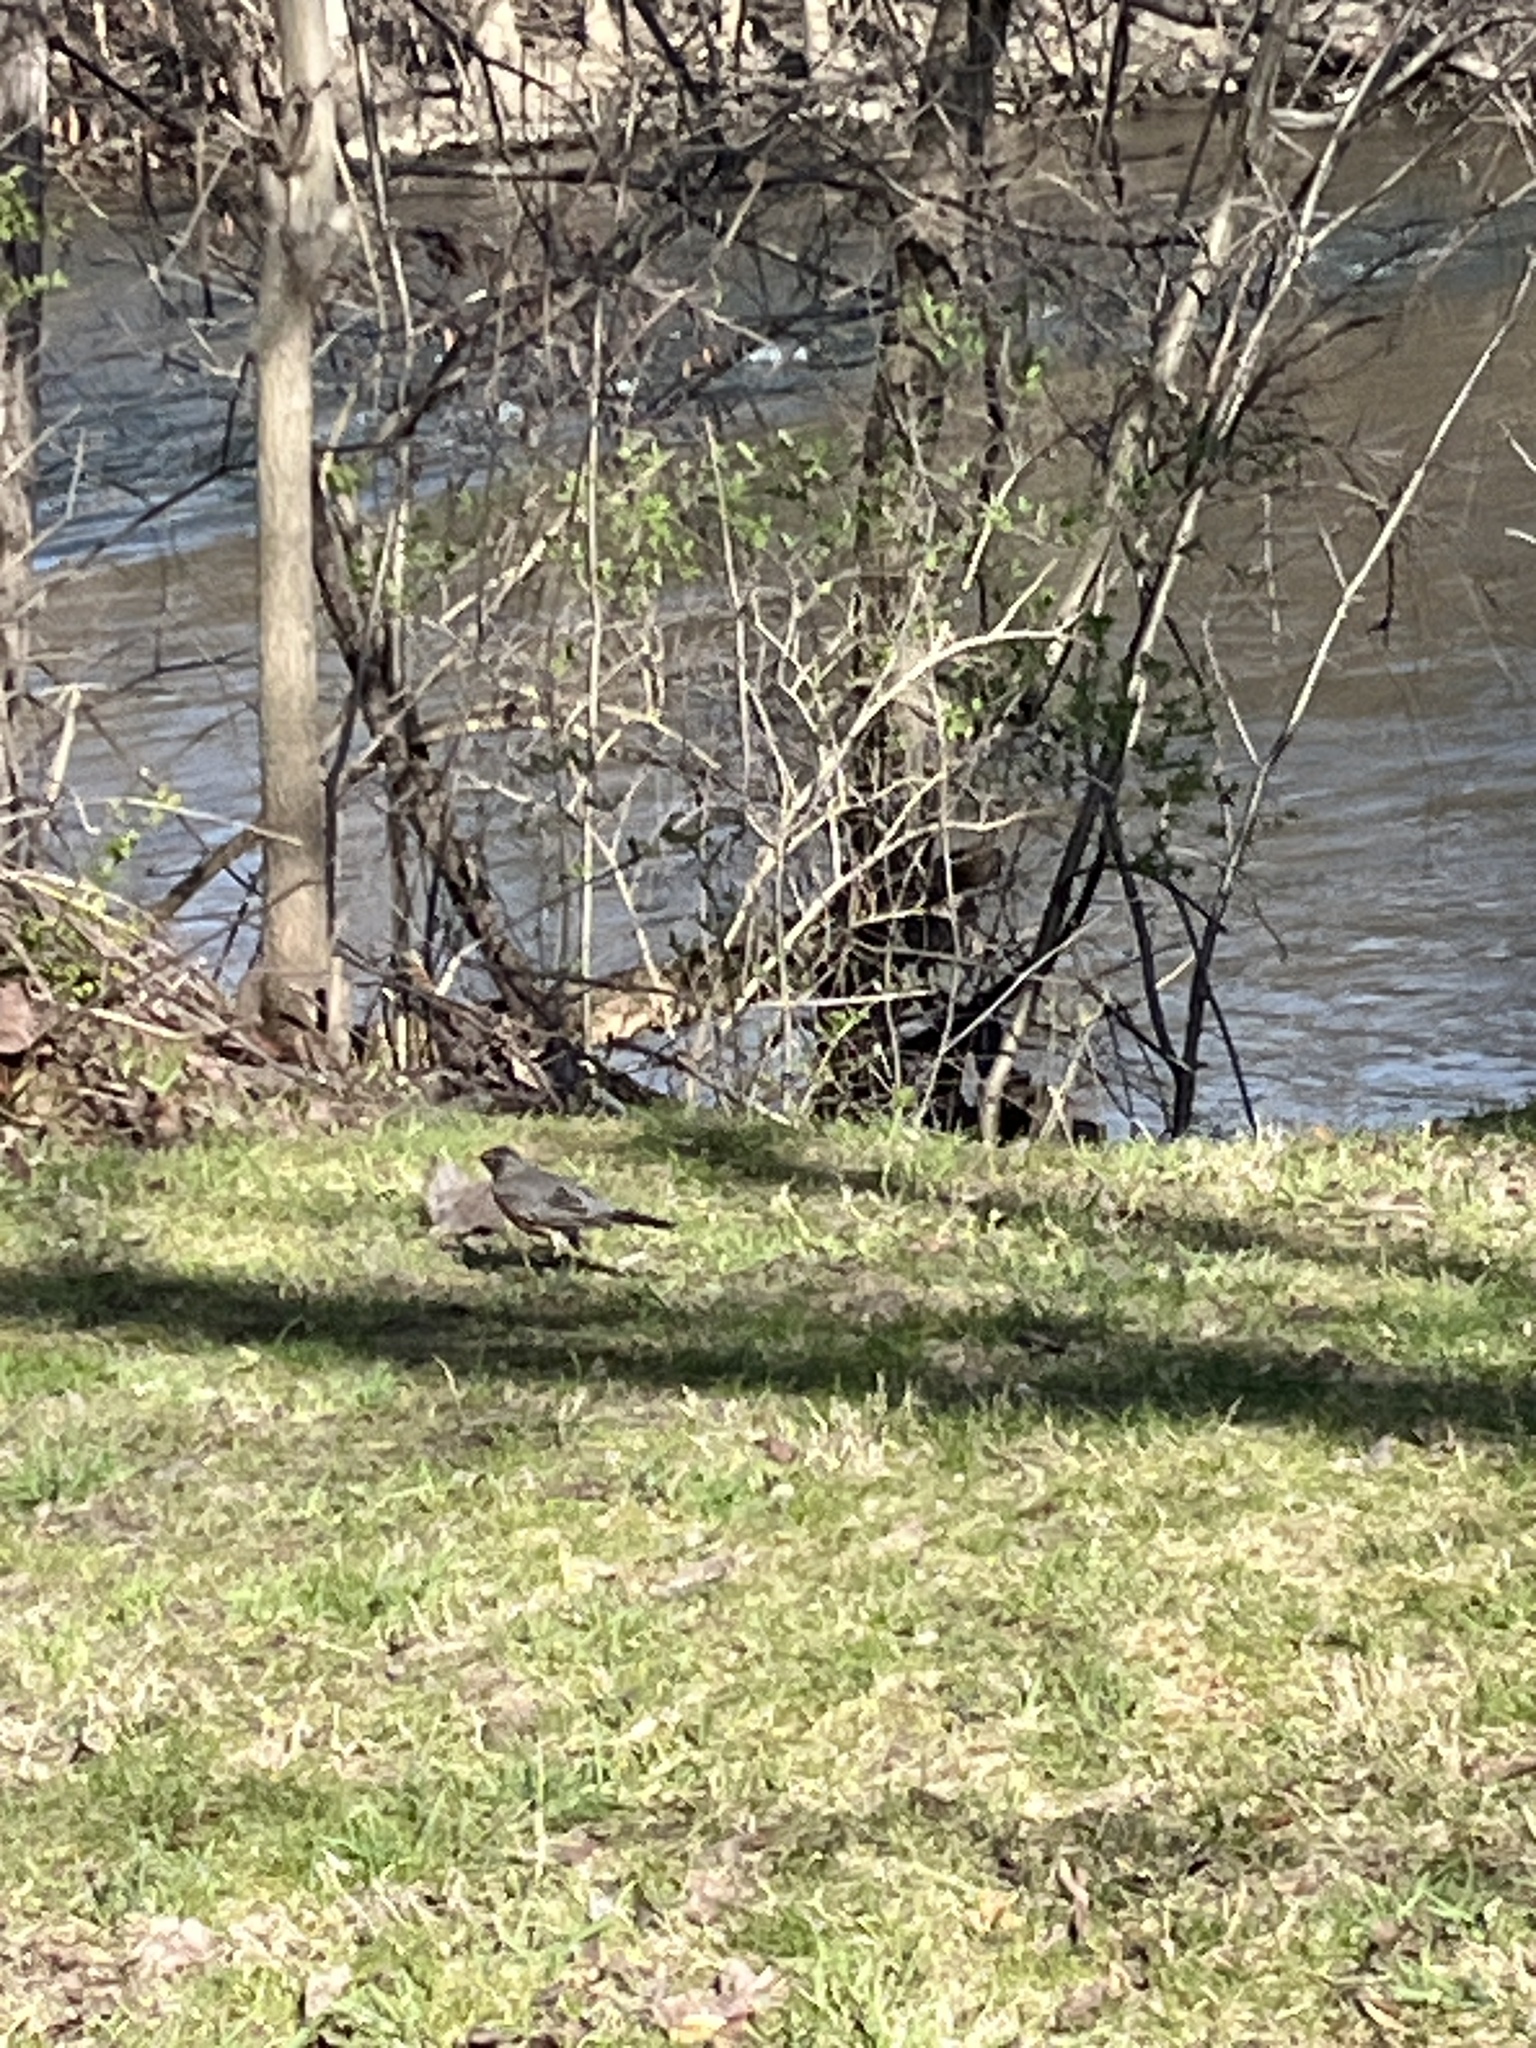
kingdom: Animalia
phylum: Chordata
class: Aves
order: Passeriformes
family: Turdidae
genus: Turdus
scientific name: Turdus migratorius
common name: American robin
